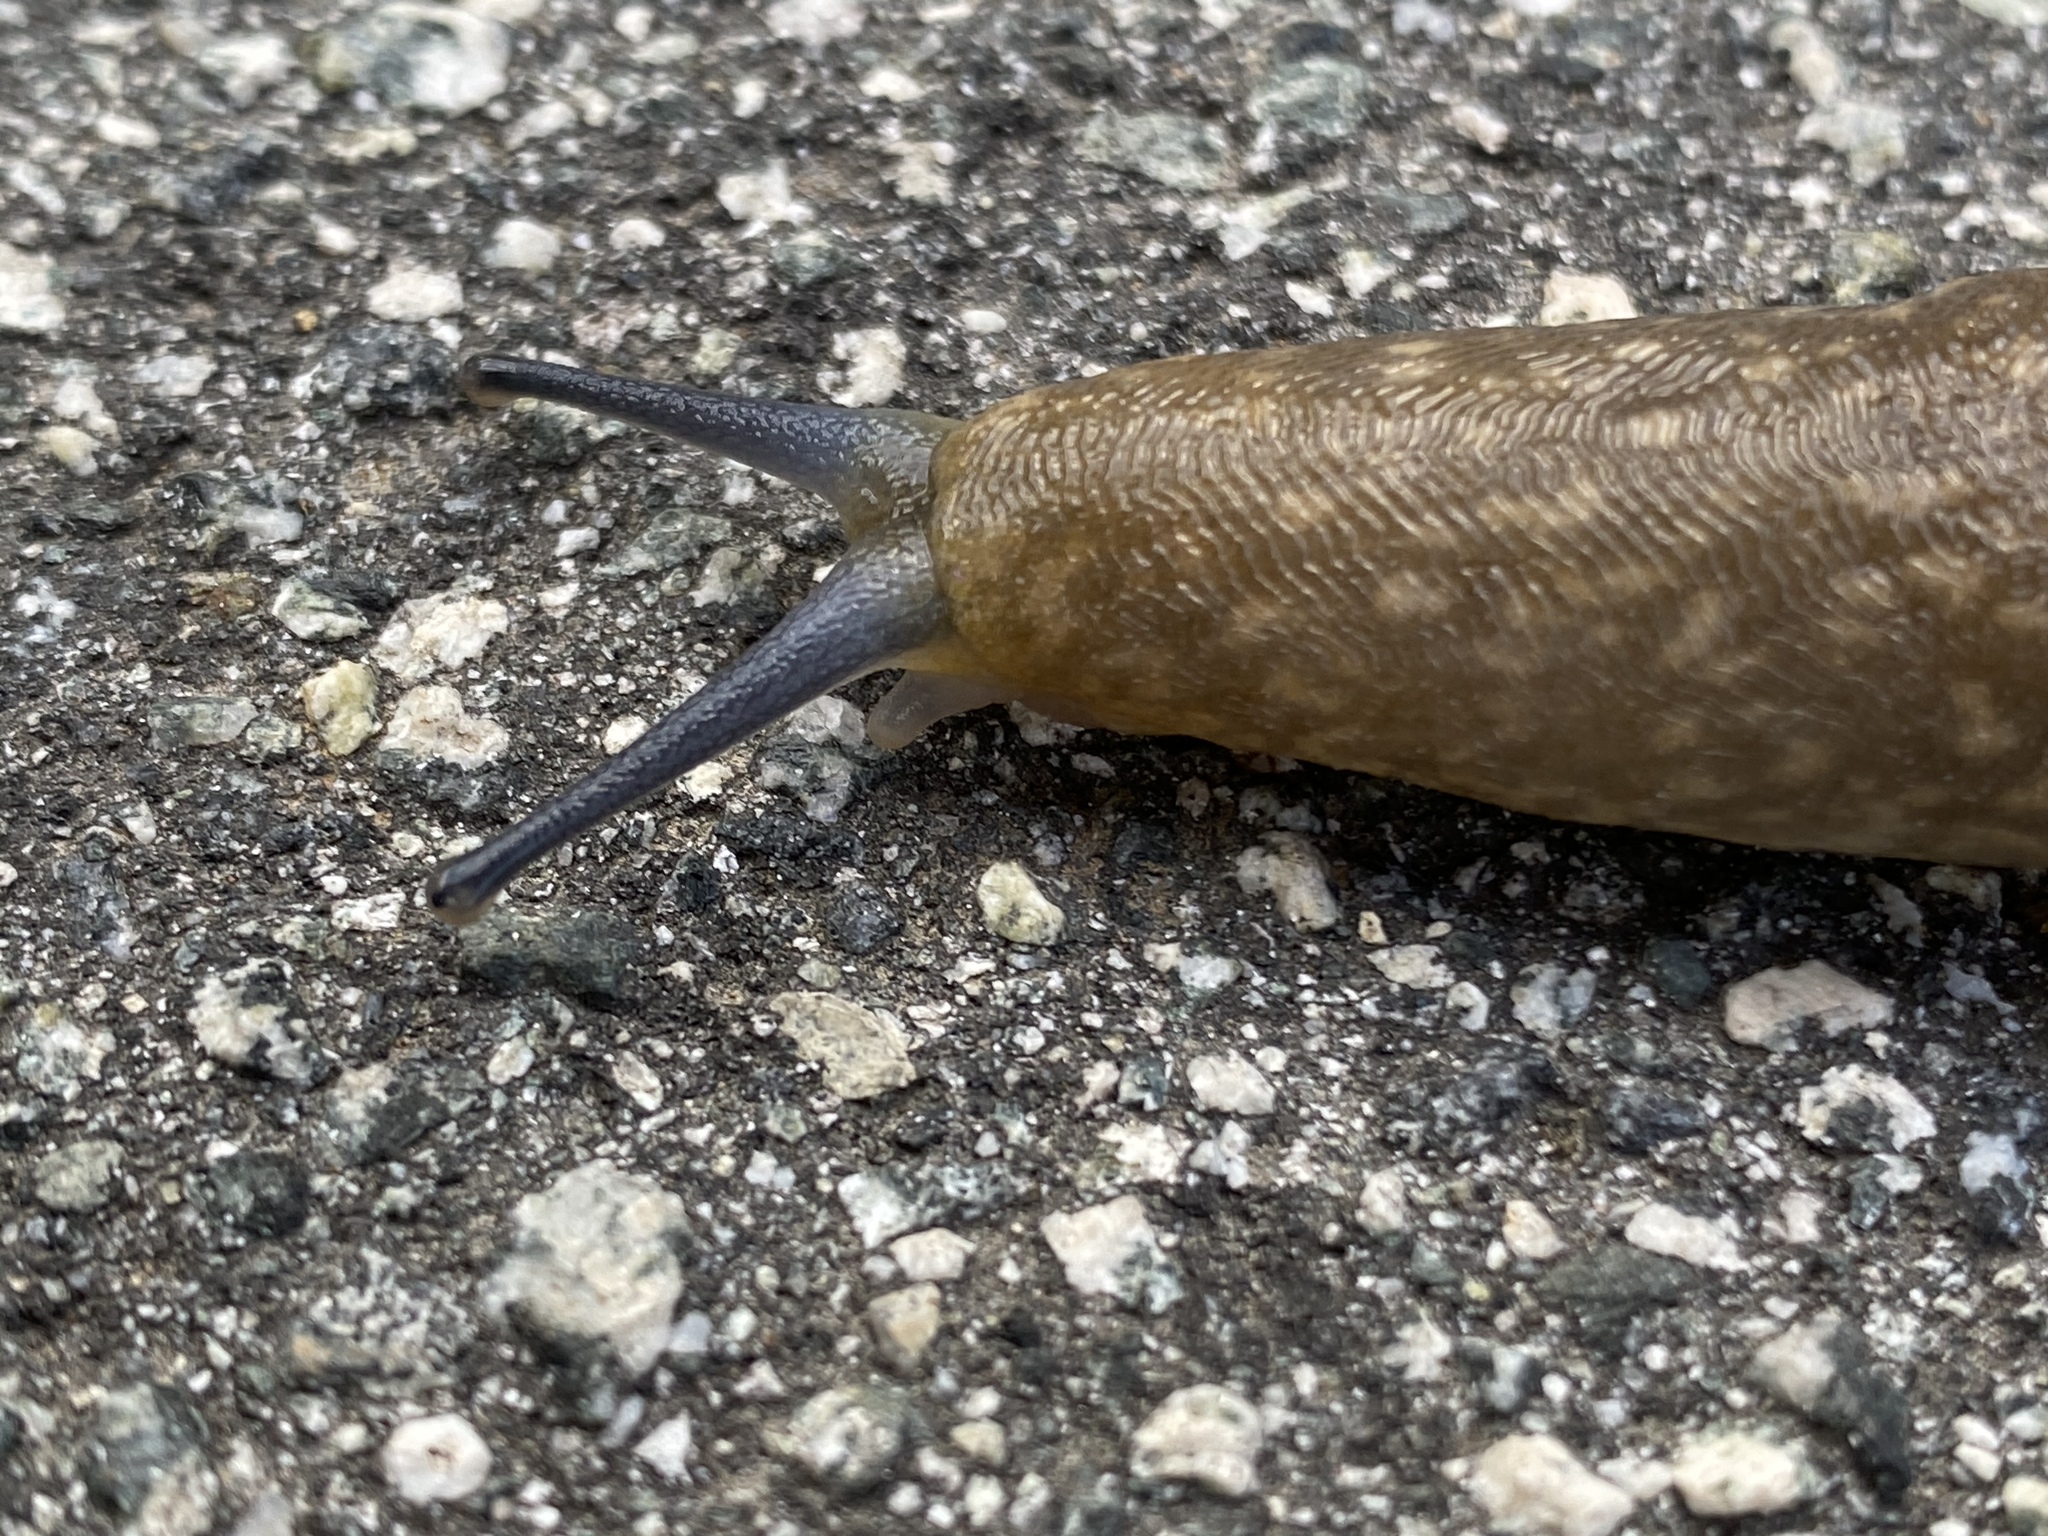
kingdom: Animalia
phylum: Mollusca
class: Gastropoda
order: Stylommatophora
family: Limacidae
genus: Limacus
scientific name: Limacus flavus
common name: Yellow gardenslug
